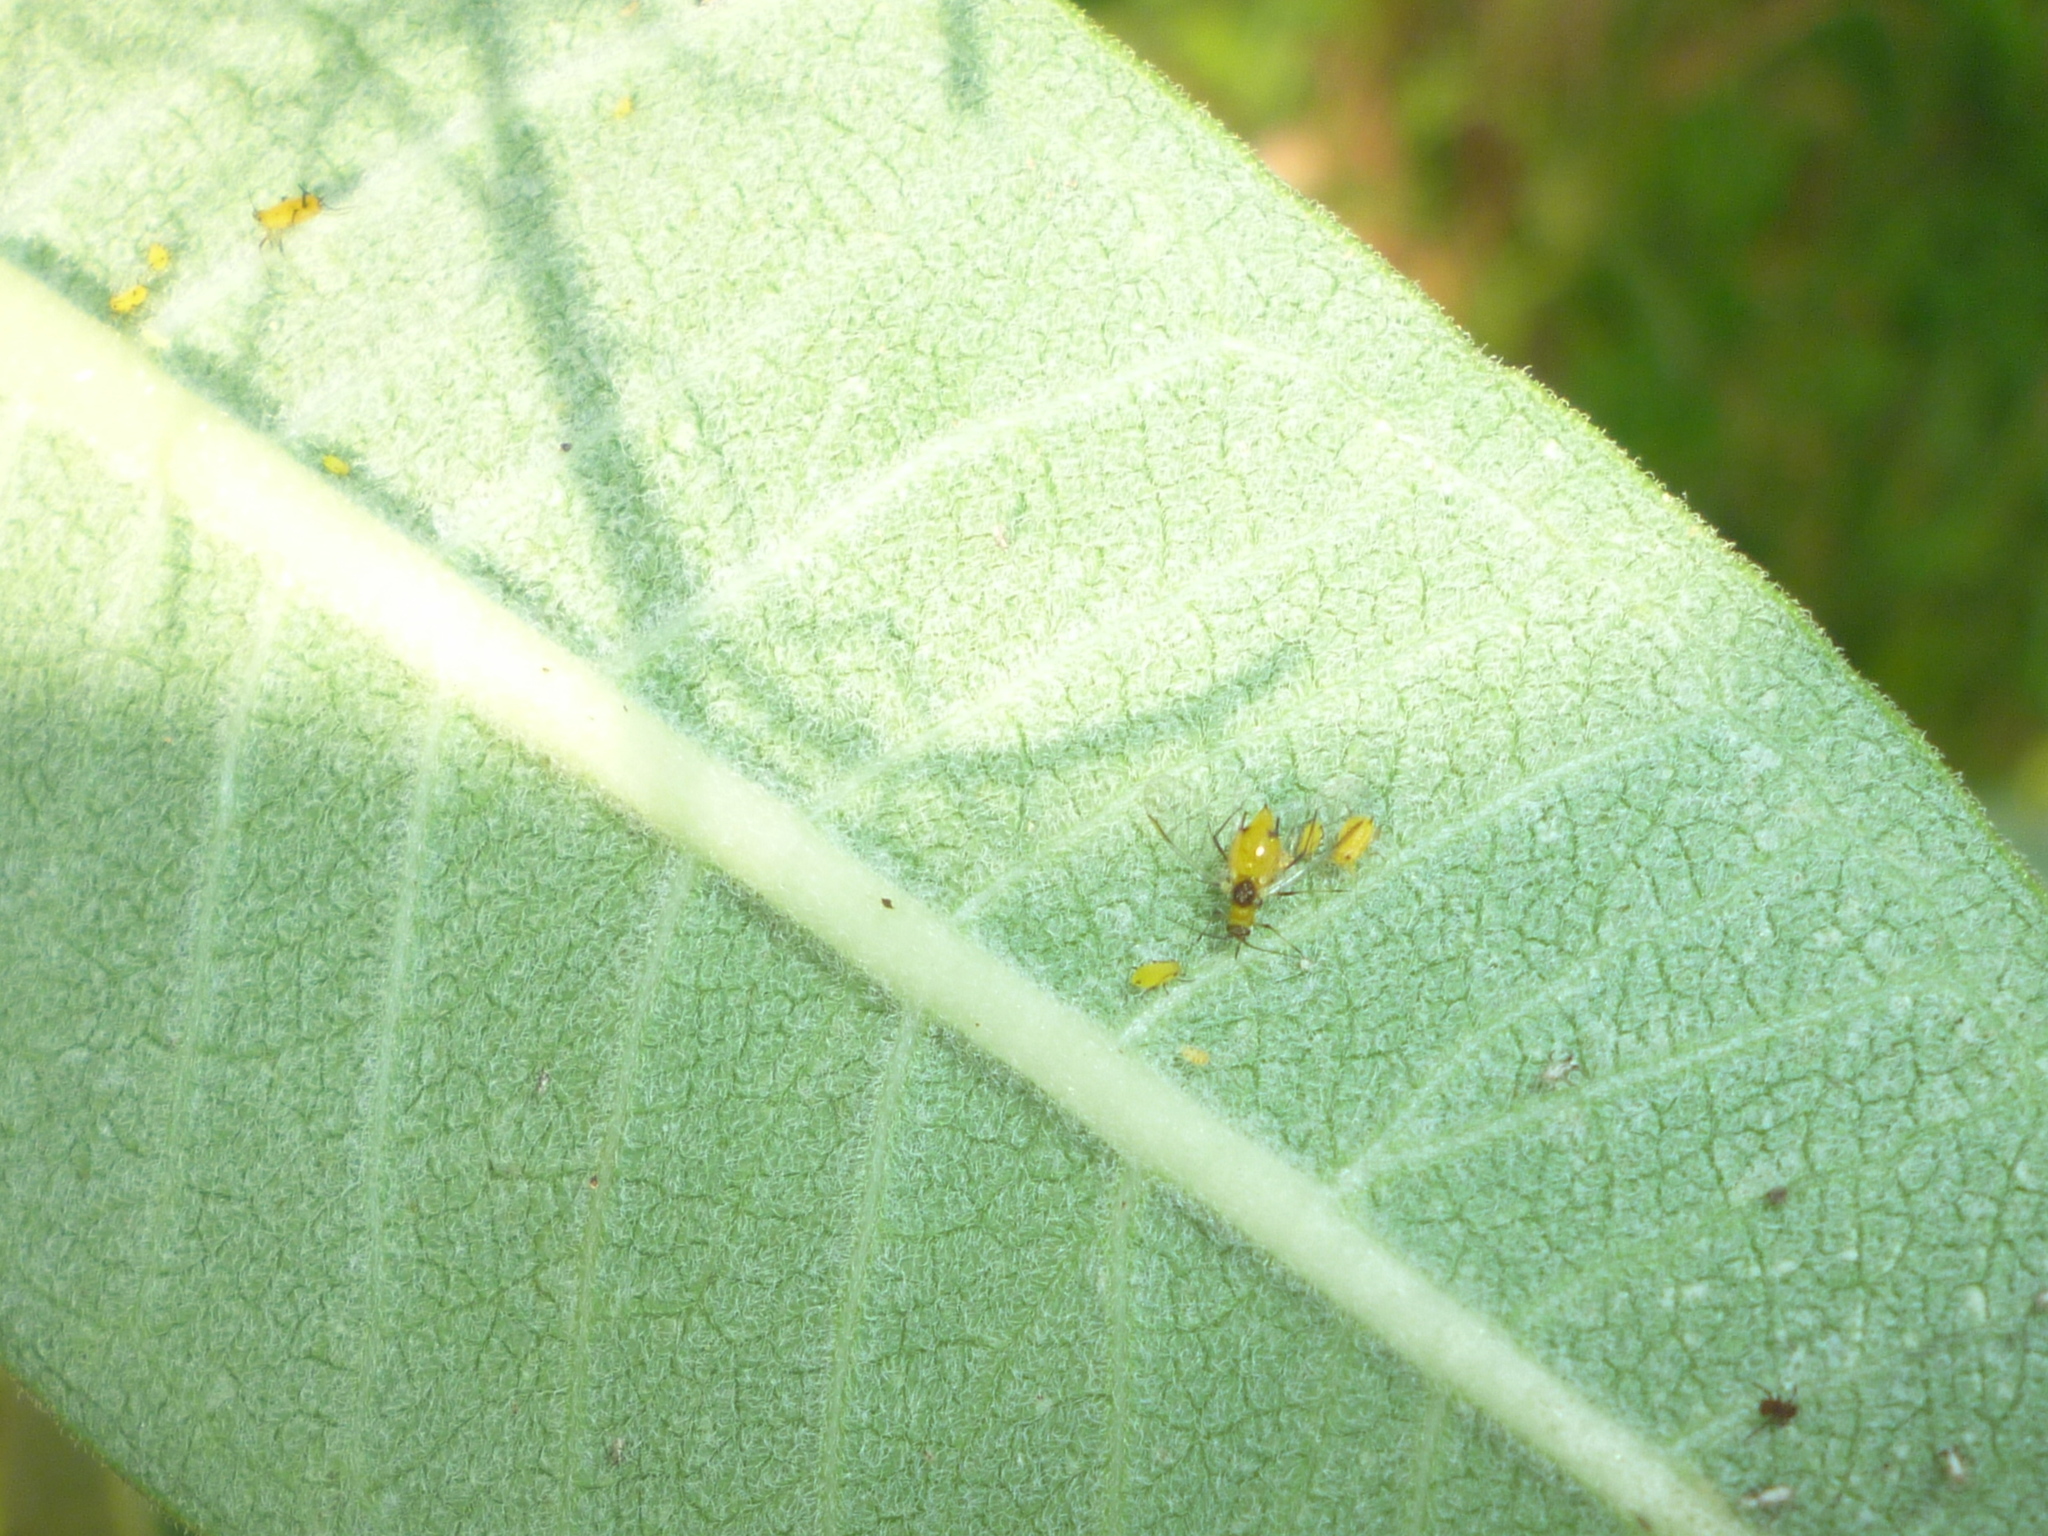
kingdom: Animalia
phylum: Arthropoda
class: Insecta
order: Hemiptera
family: Aphididae
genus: Aphis
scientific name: Aphis nerii
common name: Oleander aphid
